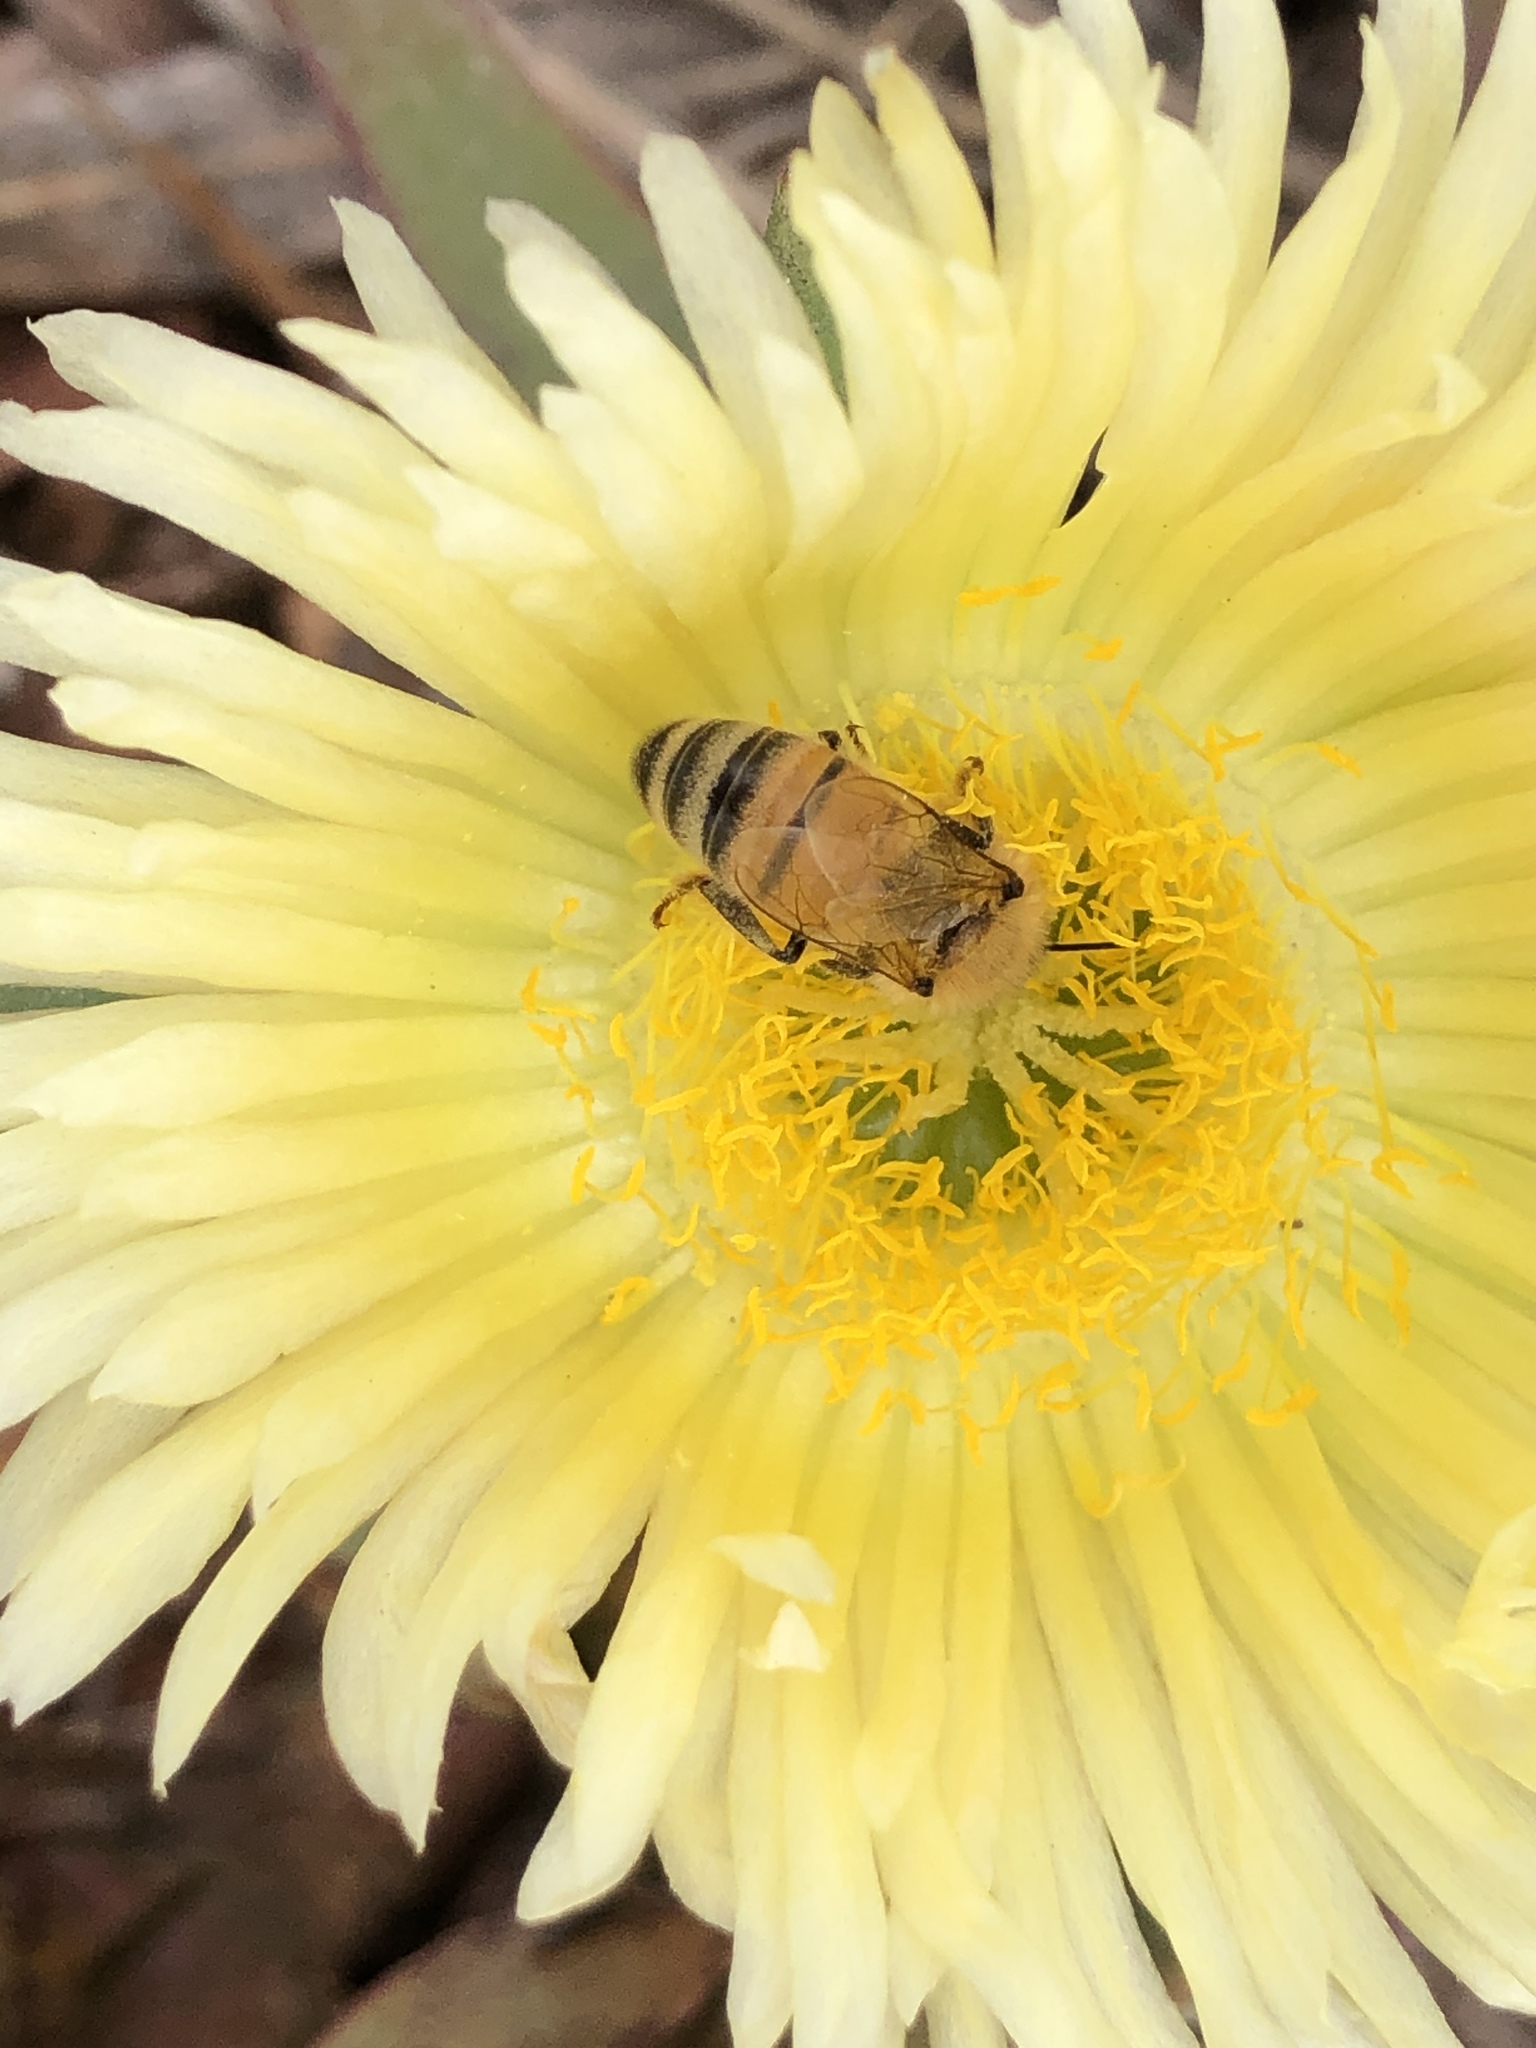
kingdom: Plantae
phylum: Tracheophyta
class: Magnoliopsida
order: Caryophyllales
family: Aizoaceae
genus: Carpobrotus
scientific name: Carpobrotus edulis
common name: Hottentot-fig
